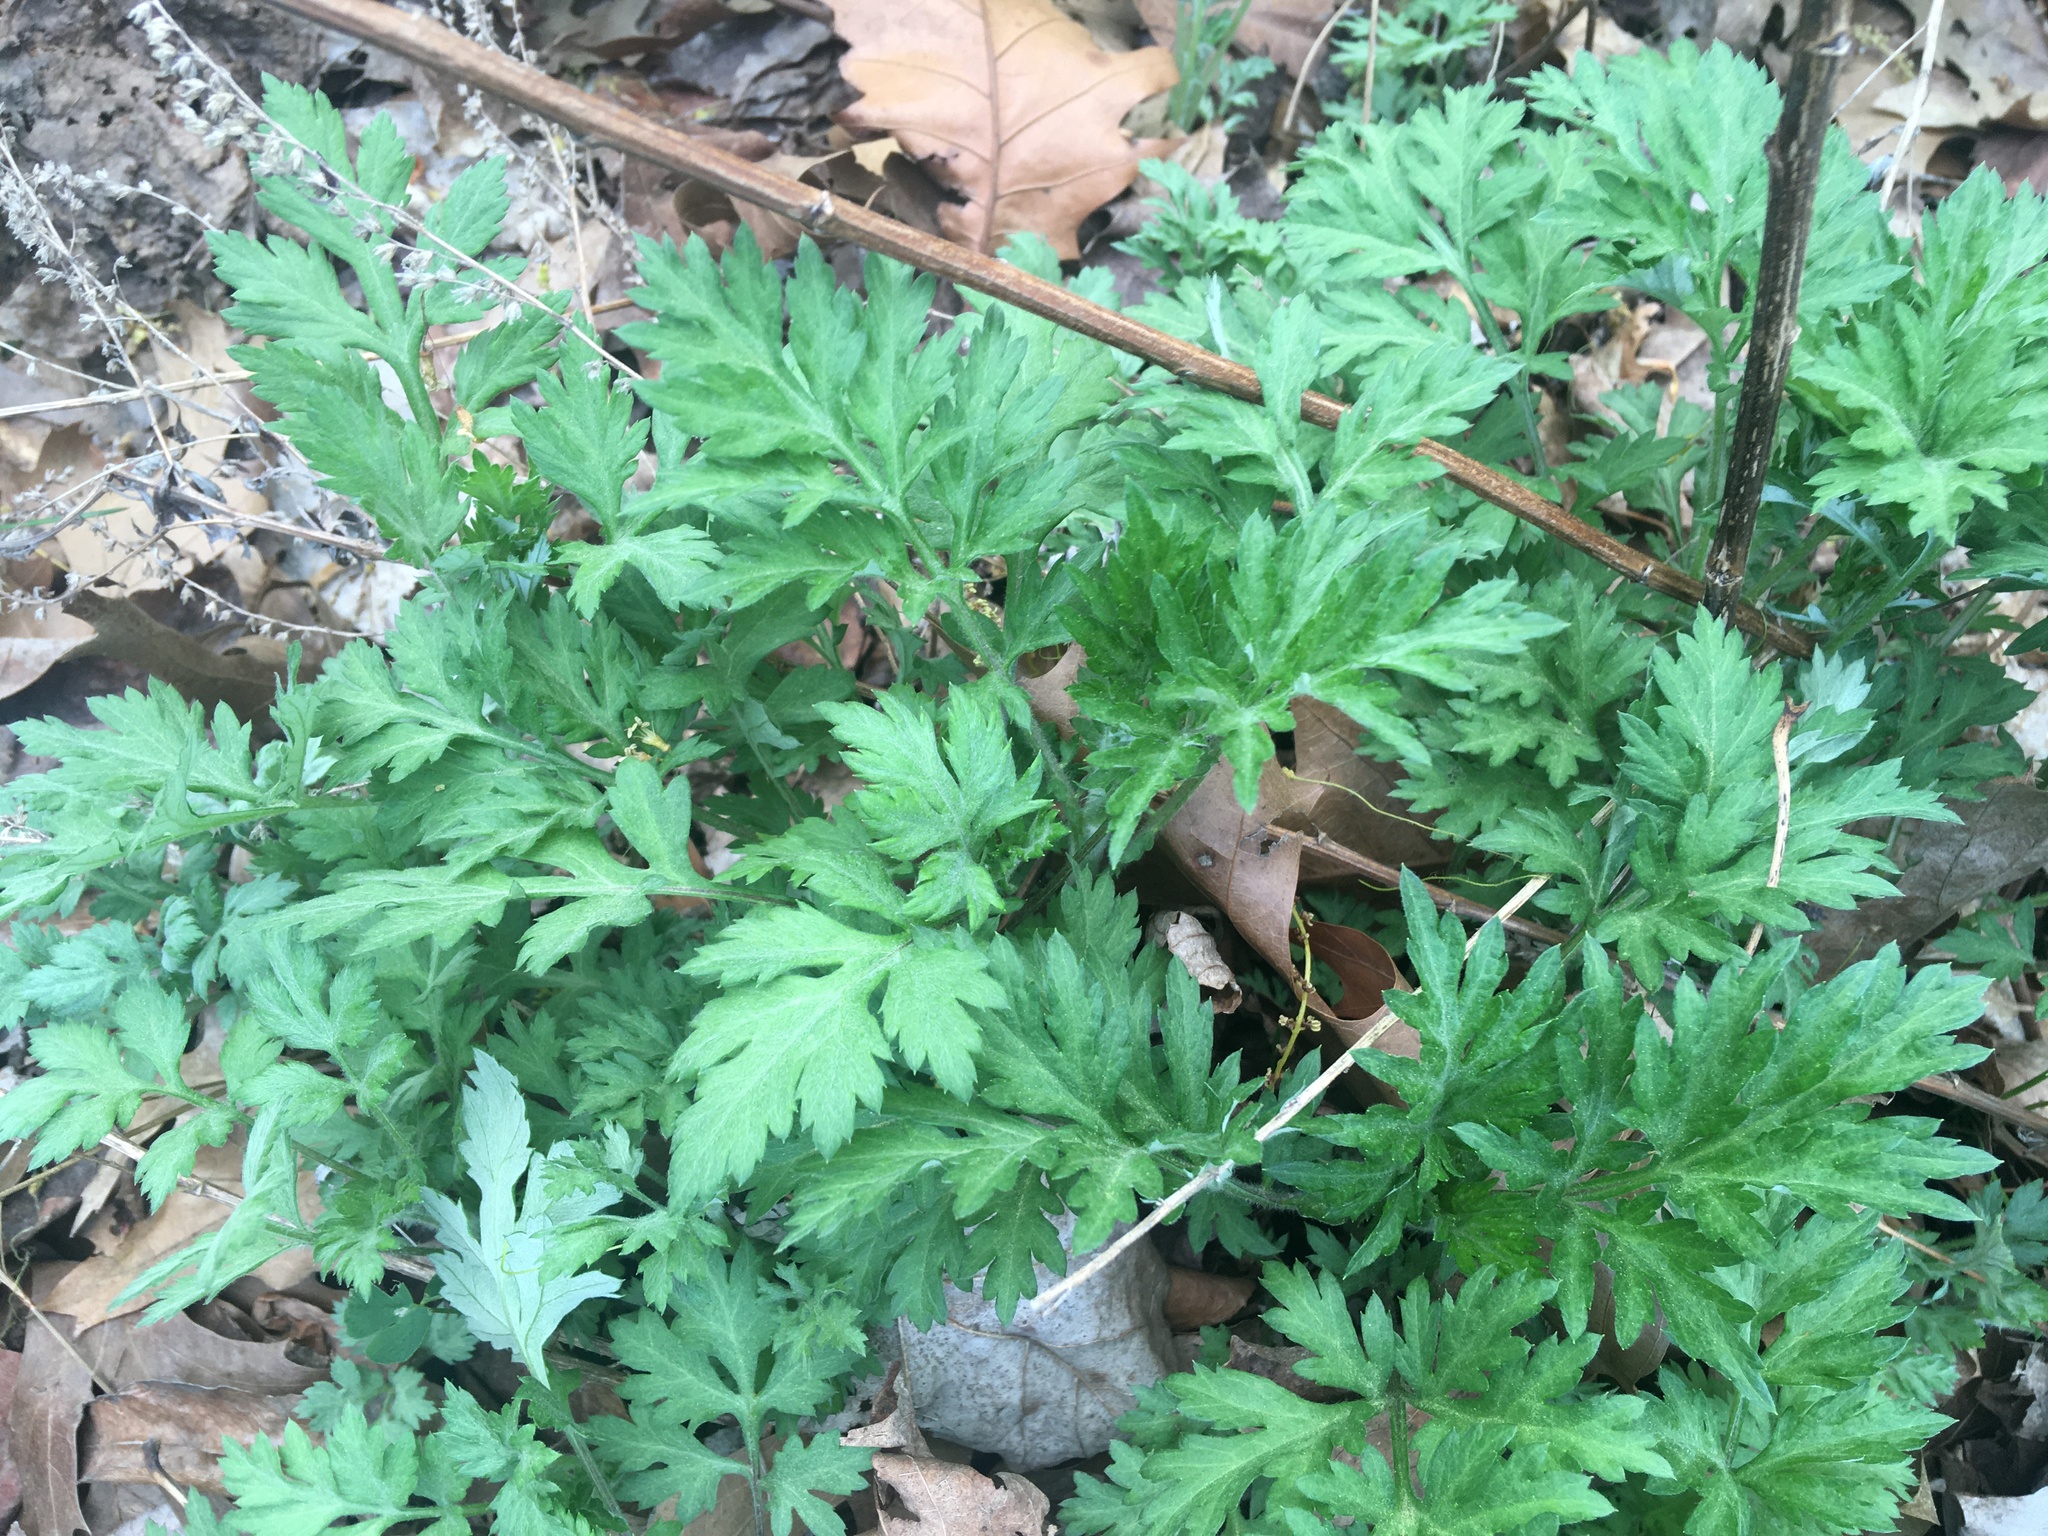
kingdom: Plantae
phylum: Tracheophyta
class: Magnoliopsida
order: Asterales
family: Asteraceae
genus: Artemisia
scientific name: Artemisia vulgaris
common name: Mugwort
